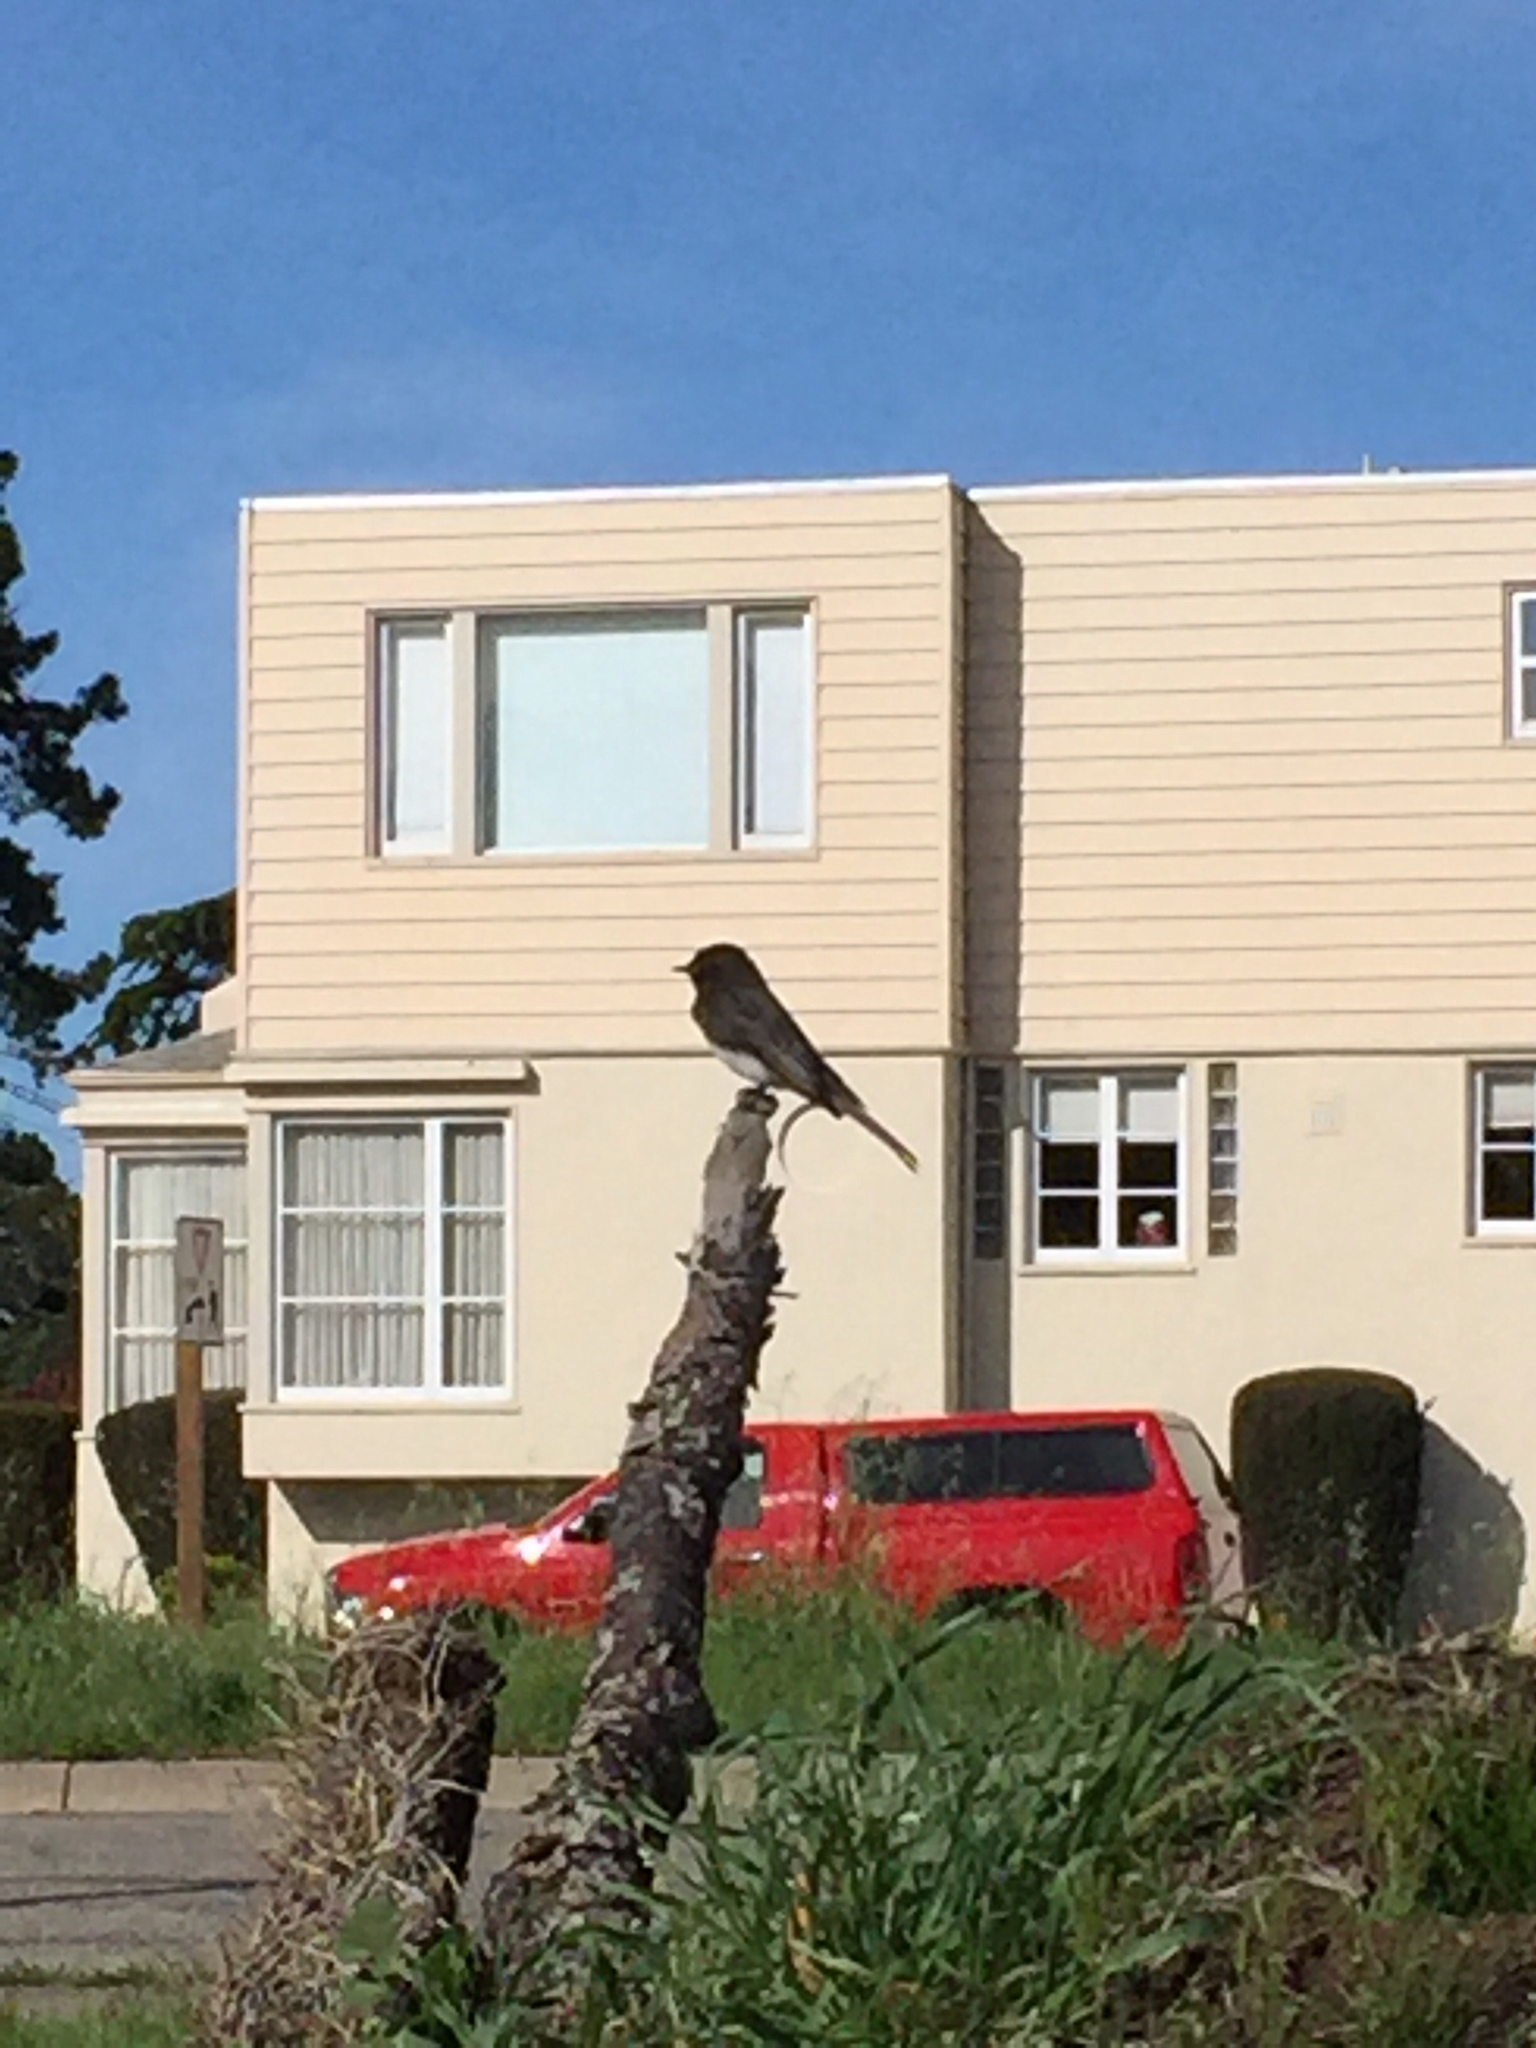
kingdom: Animalia
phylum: Chordata
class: Aves
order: Passeriformes
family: Tyrannidae
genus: Sayornis
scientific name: Sayornis nigricans
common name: Black phoebe
